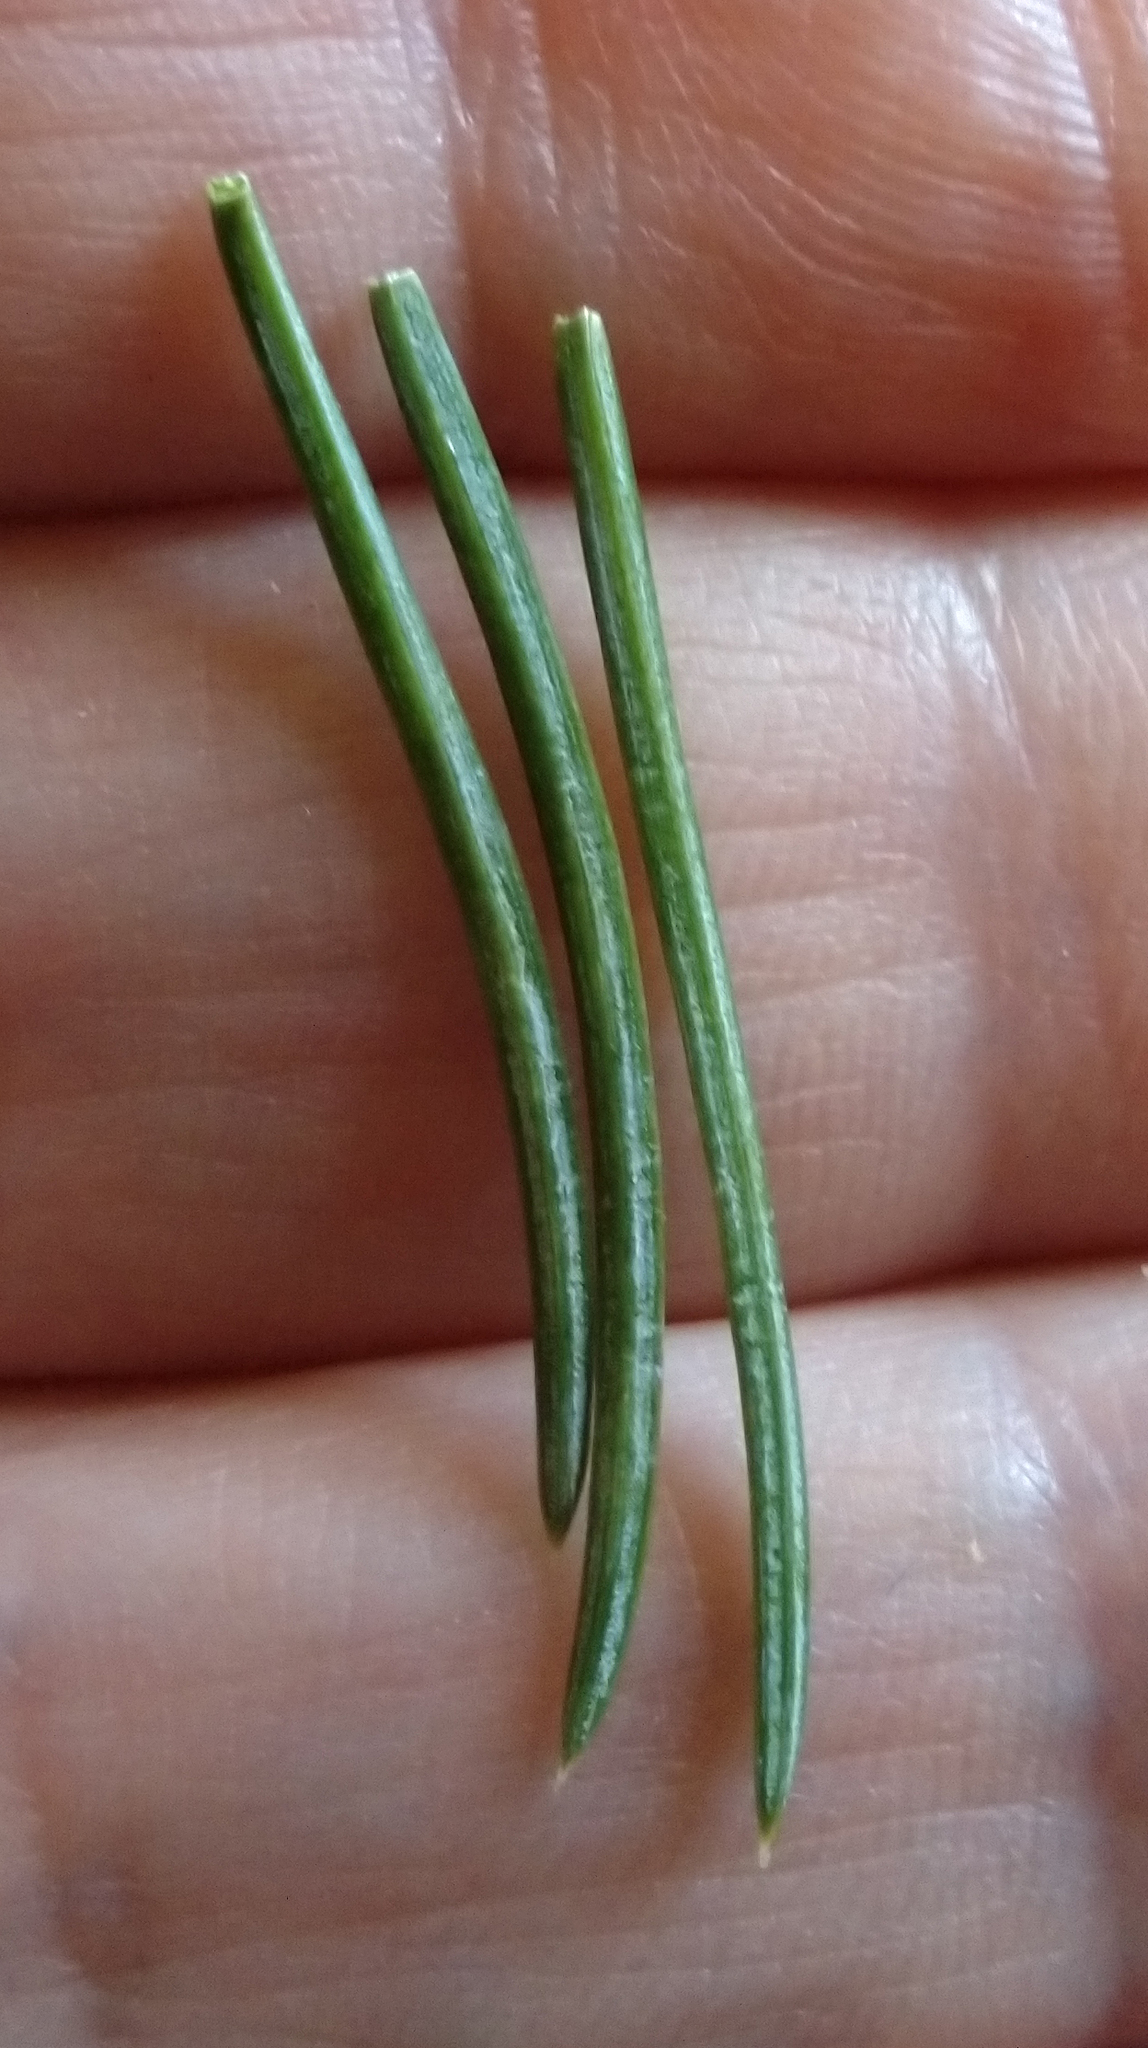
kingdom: Plantae
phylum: Tracheophyta
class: Pinopsida
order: Pinales
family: Pinaceae
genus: Picea
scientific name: Picea glauca
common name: White spruce
